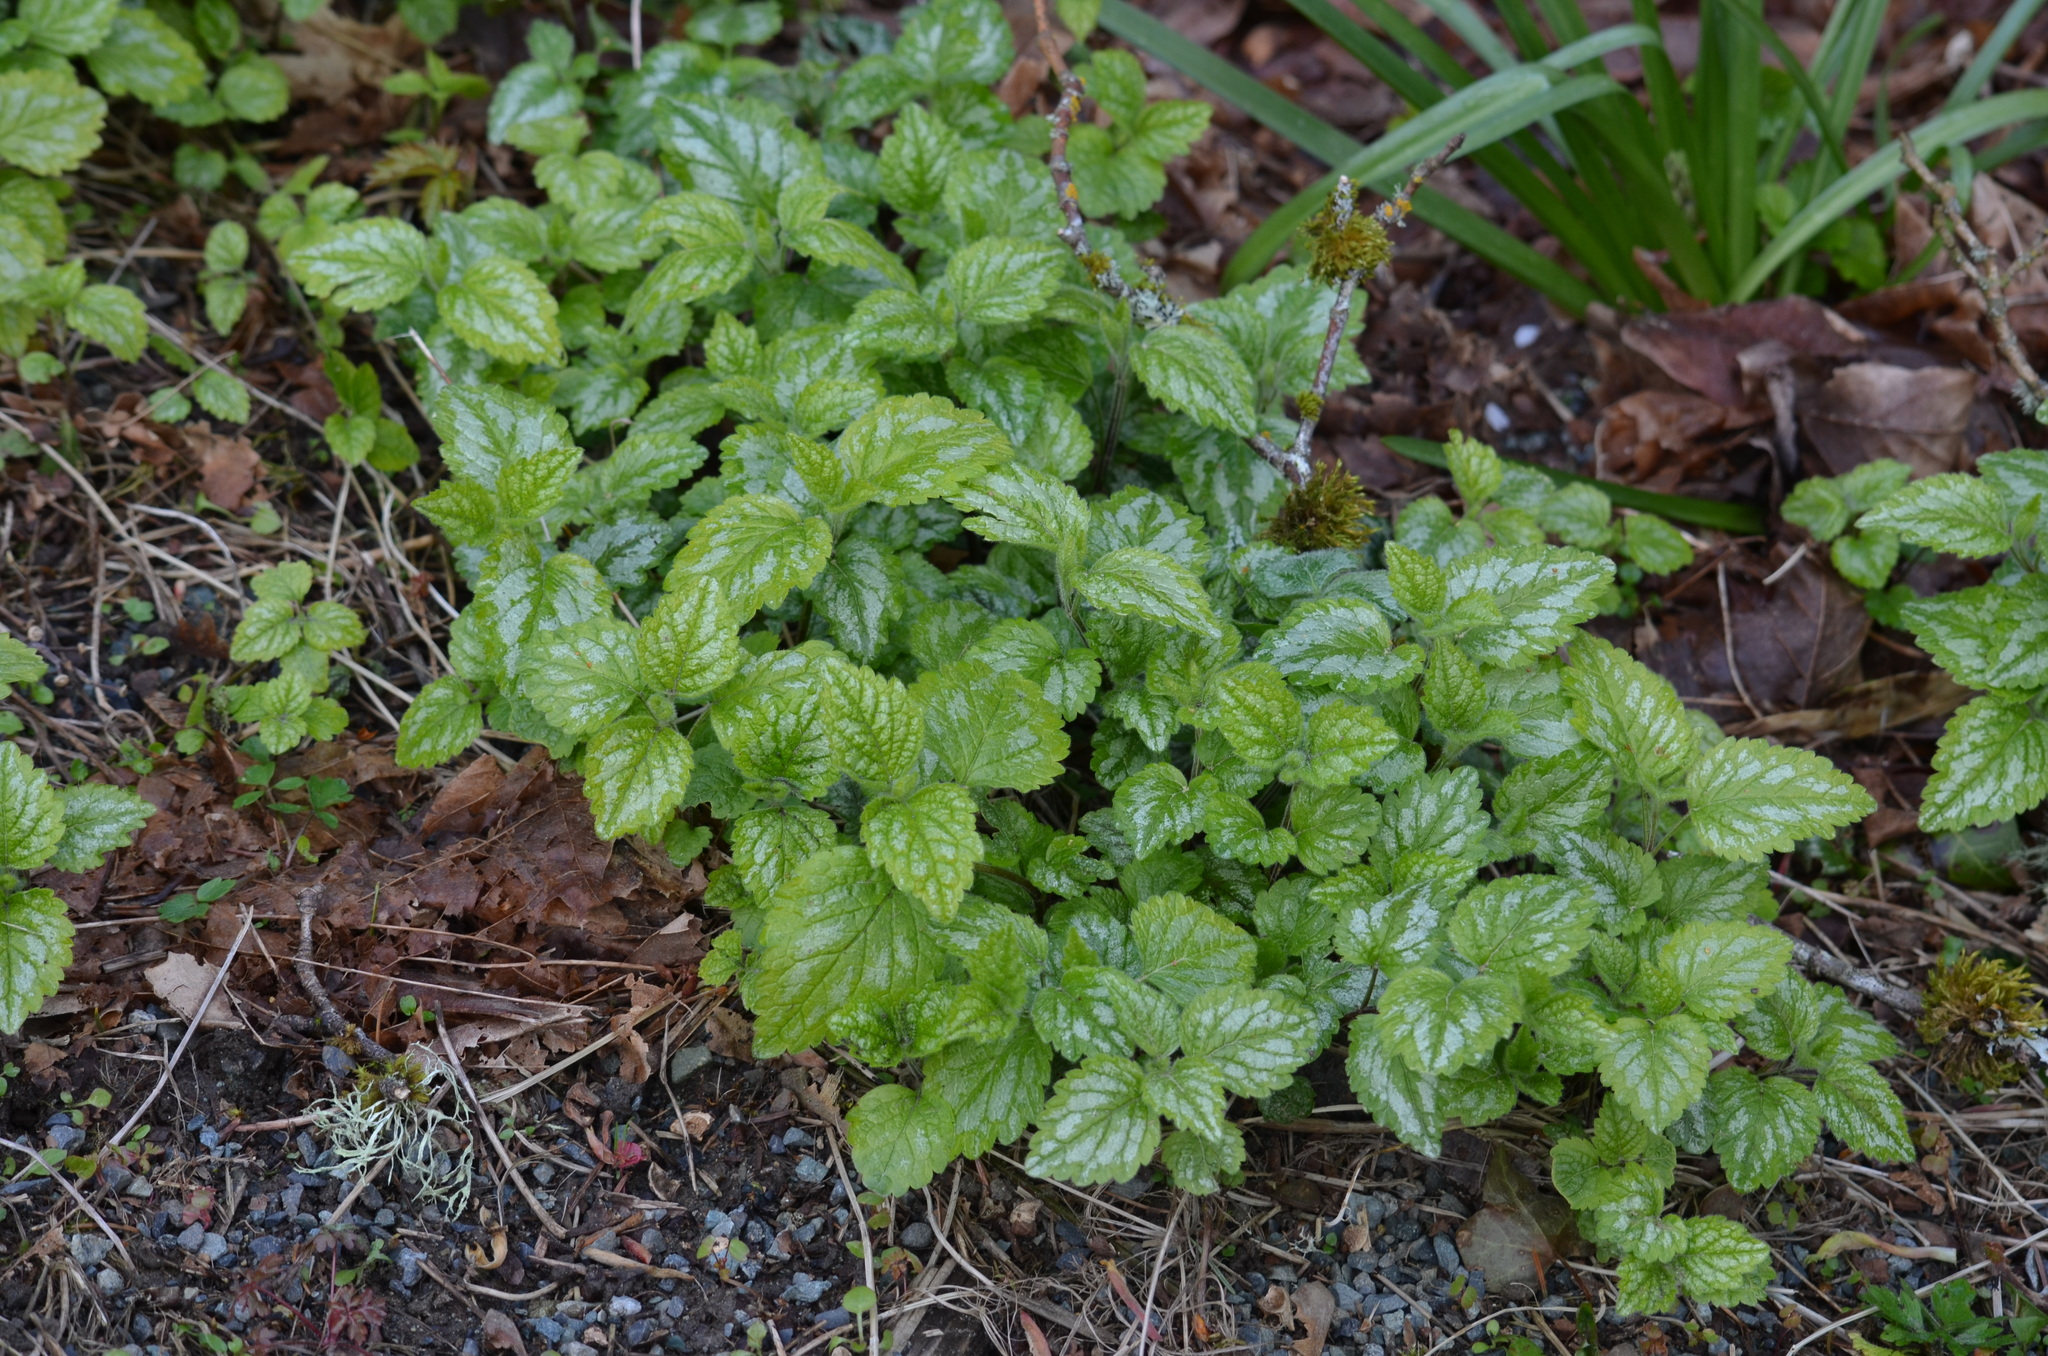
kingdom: Plantae
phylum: Tracheophyta
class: Magnoliopsida
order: Lamiales
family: Lamiaceae
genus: Lamium
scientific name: Lamium galeobdolon
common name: Yellow archangel
